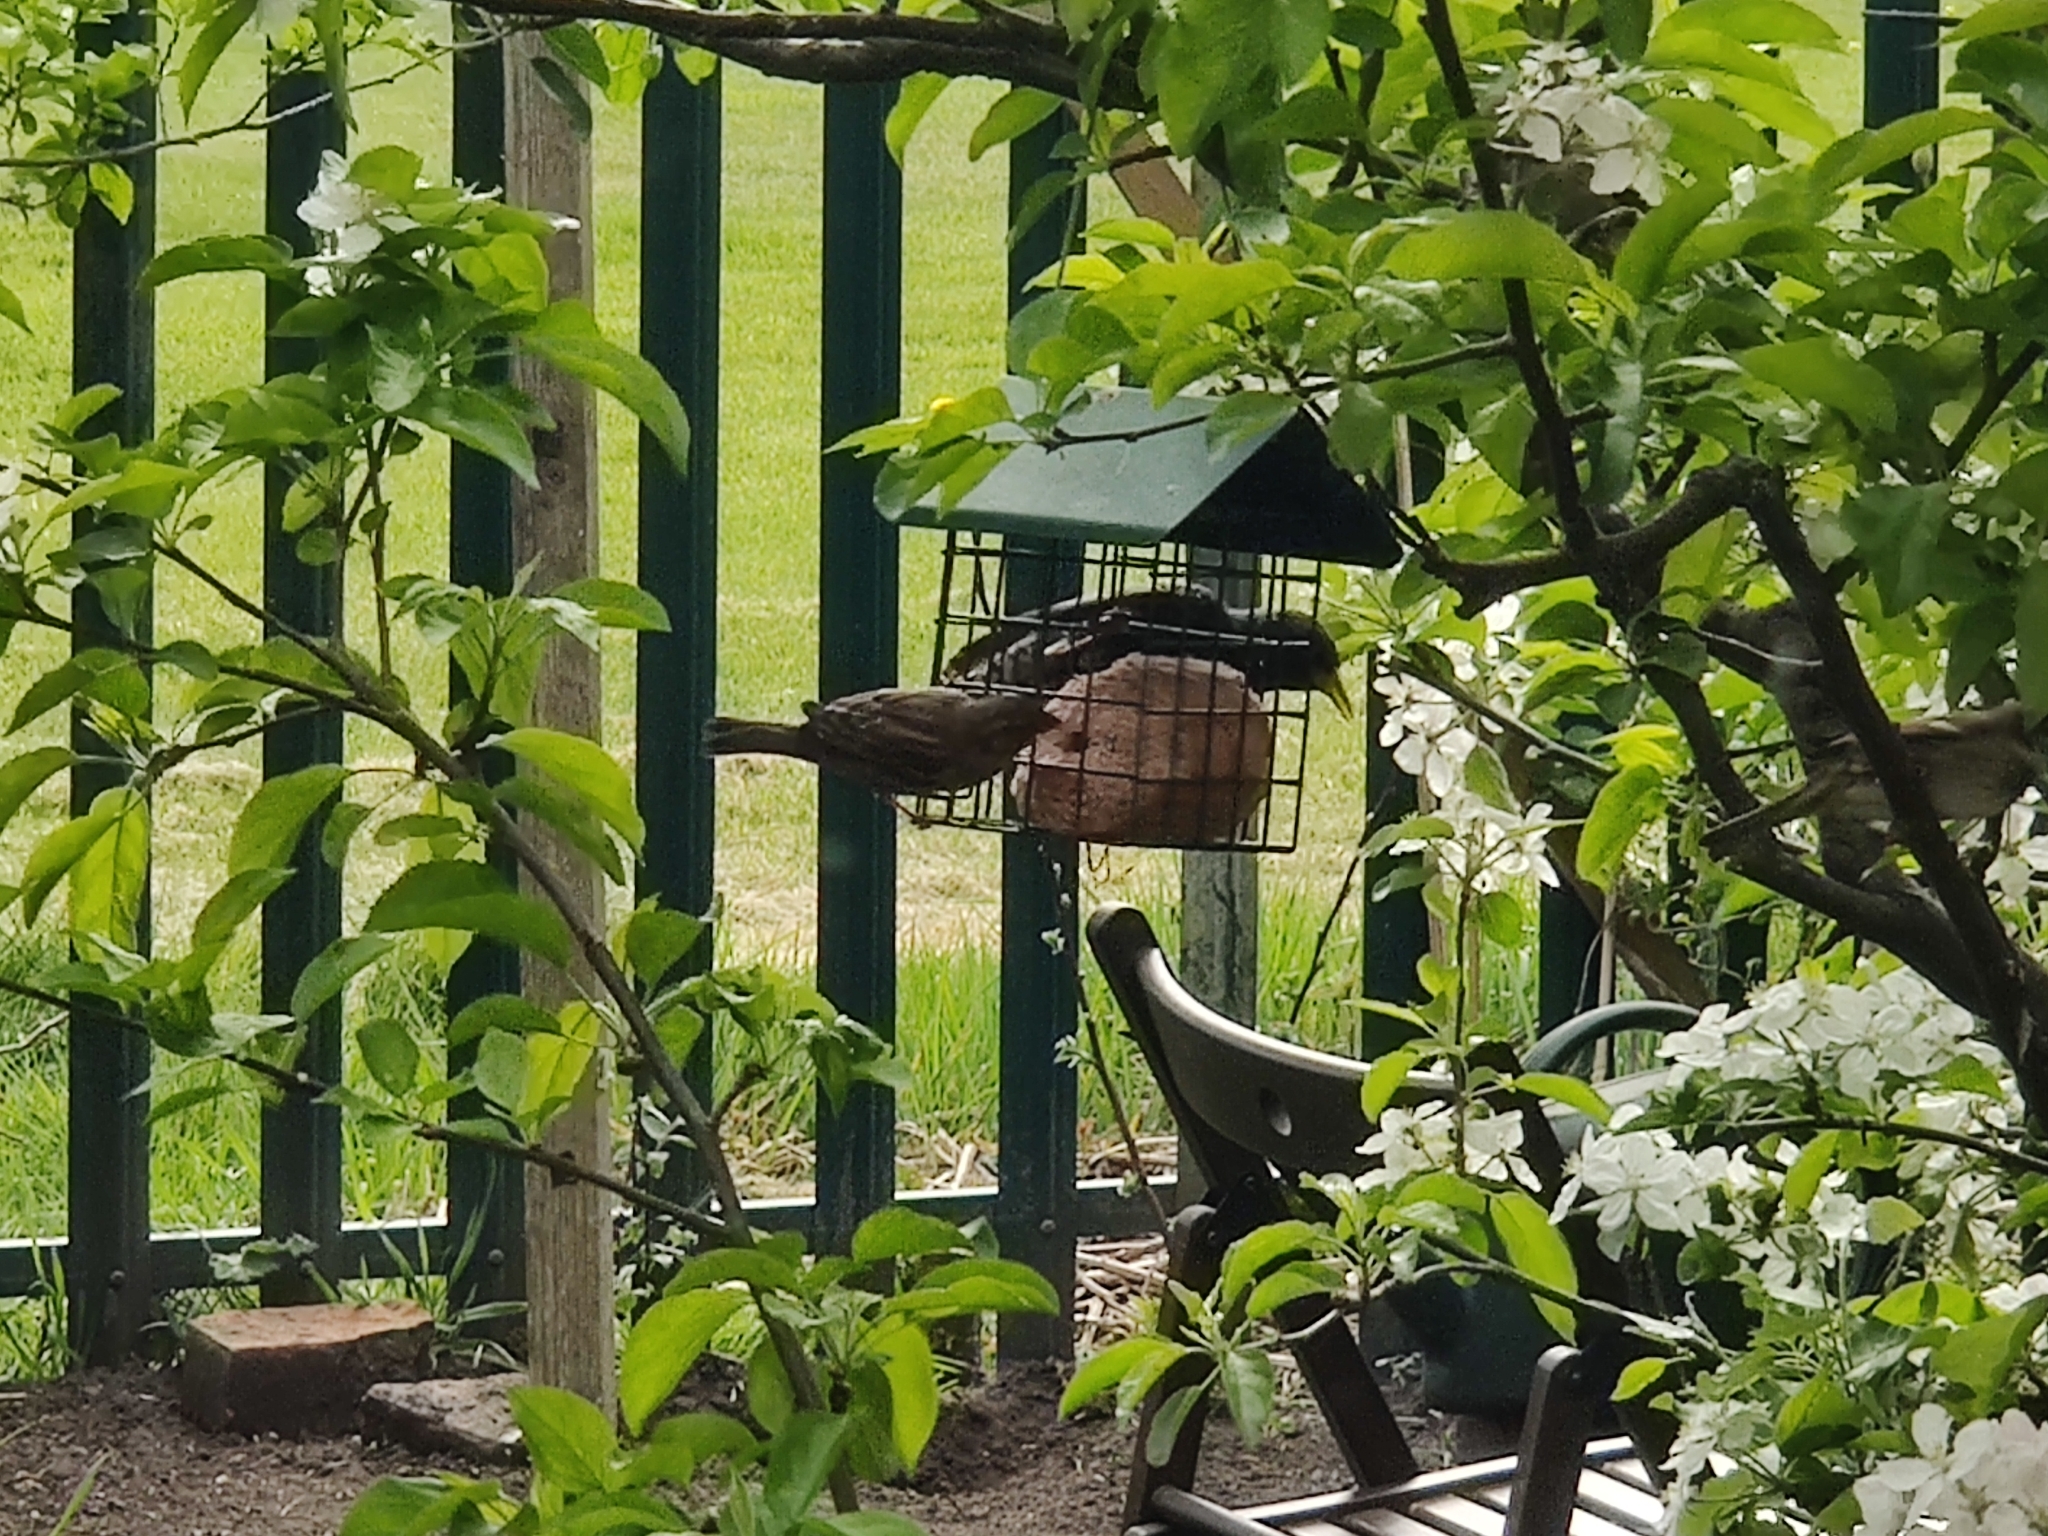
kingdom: Animalia
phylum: Chordata
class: Aves
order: Passeriformes
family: Sturnidae
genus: Sturnus
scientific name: Sturnus vulgaris
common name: Common starling
